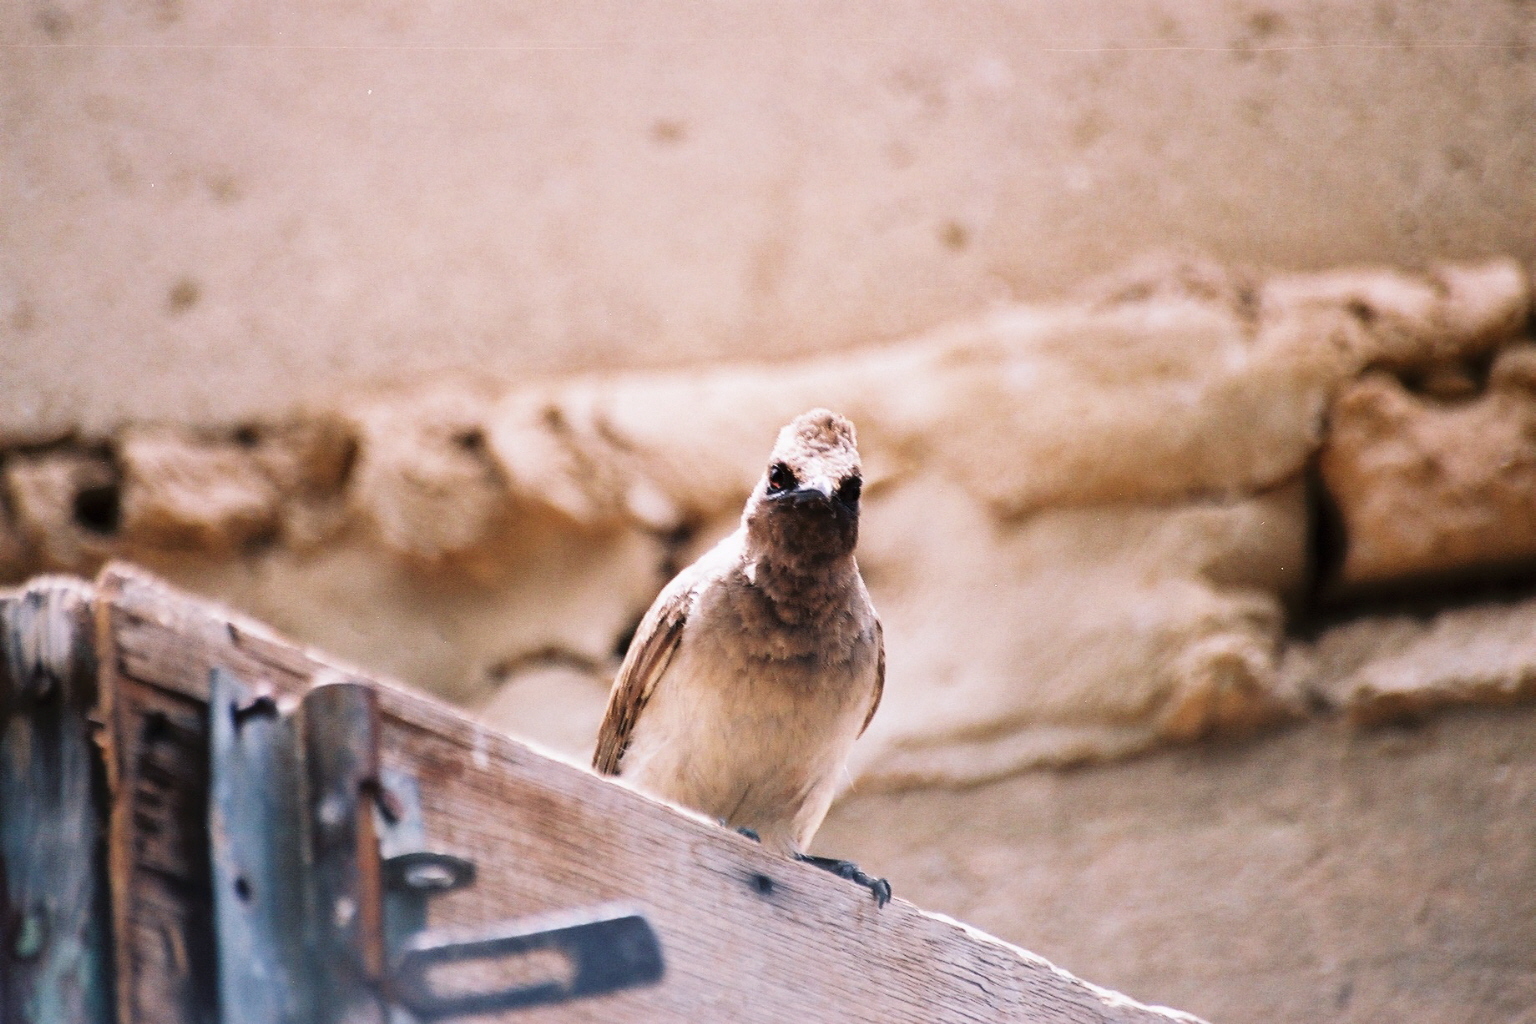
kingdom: Animalia
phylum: Chordata
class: Aves
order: Passeriformes
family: Pycnonotidae
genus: Pycnonotus
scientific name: Pycnonotus barbatus
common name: Common bulbul
